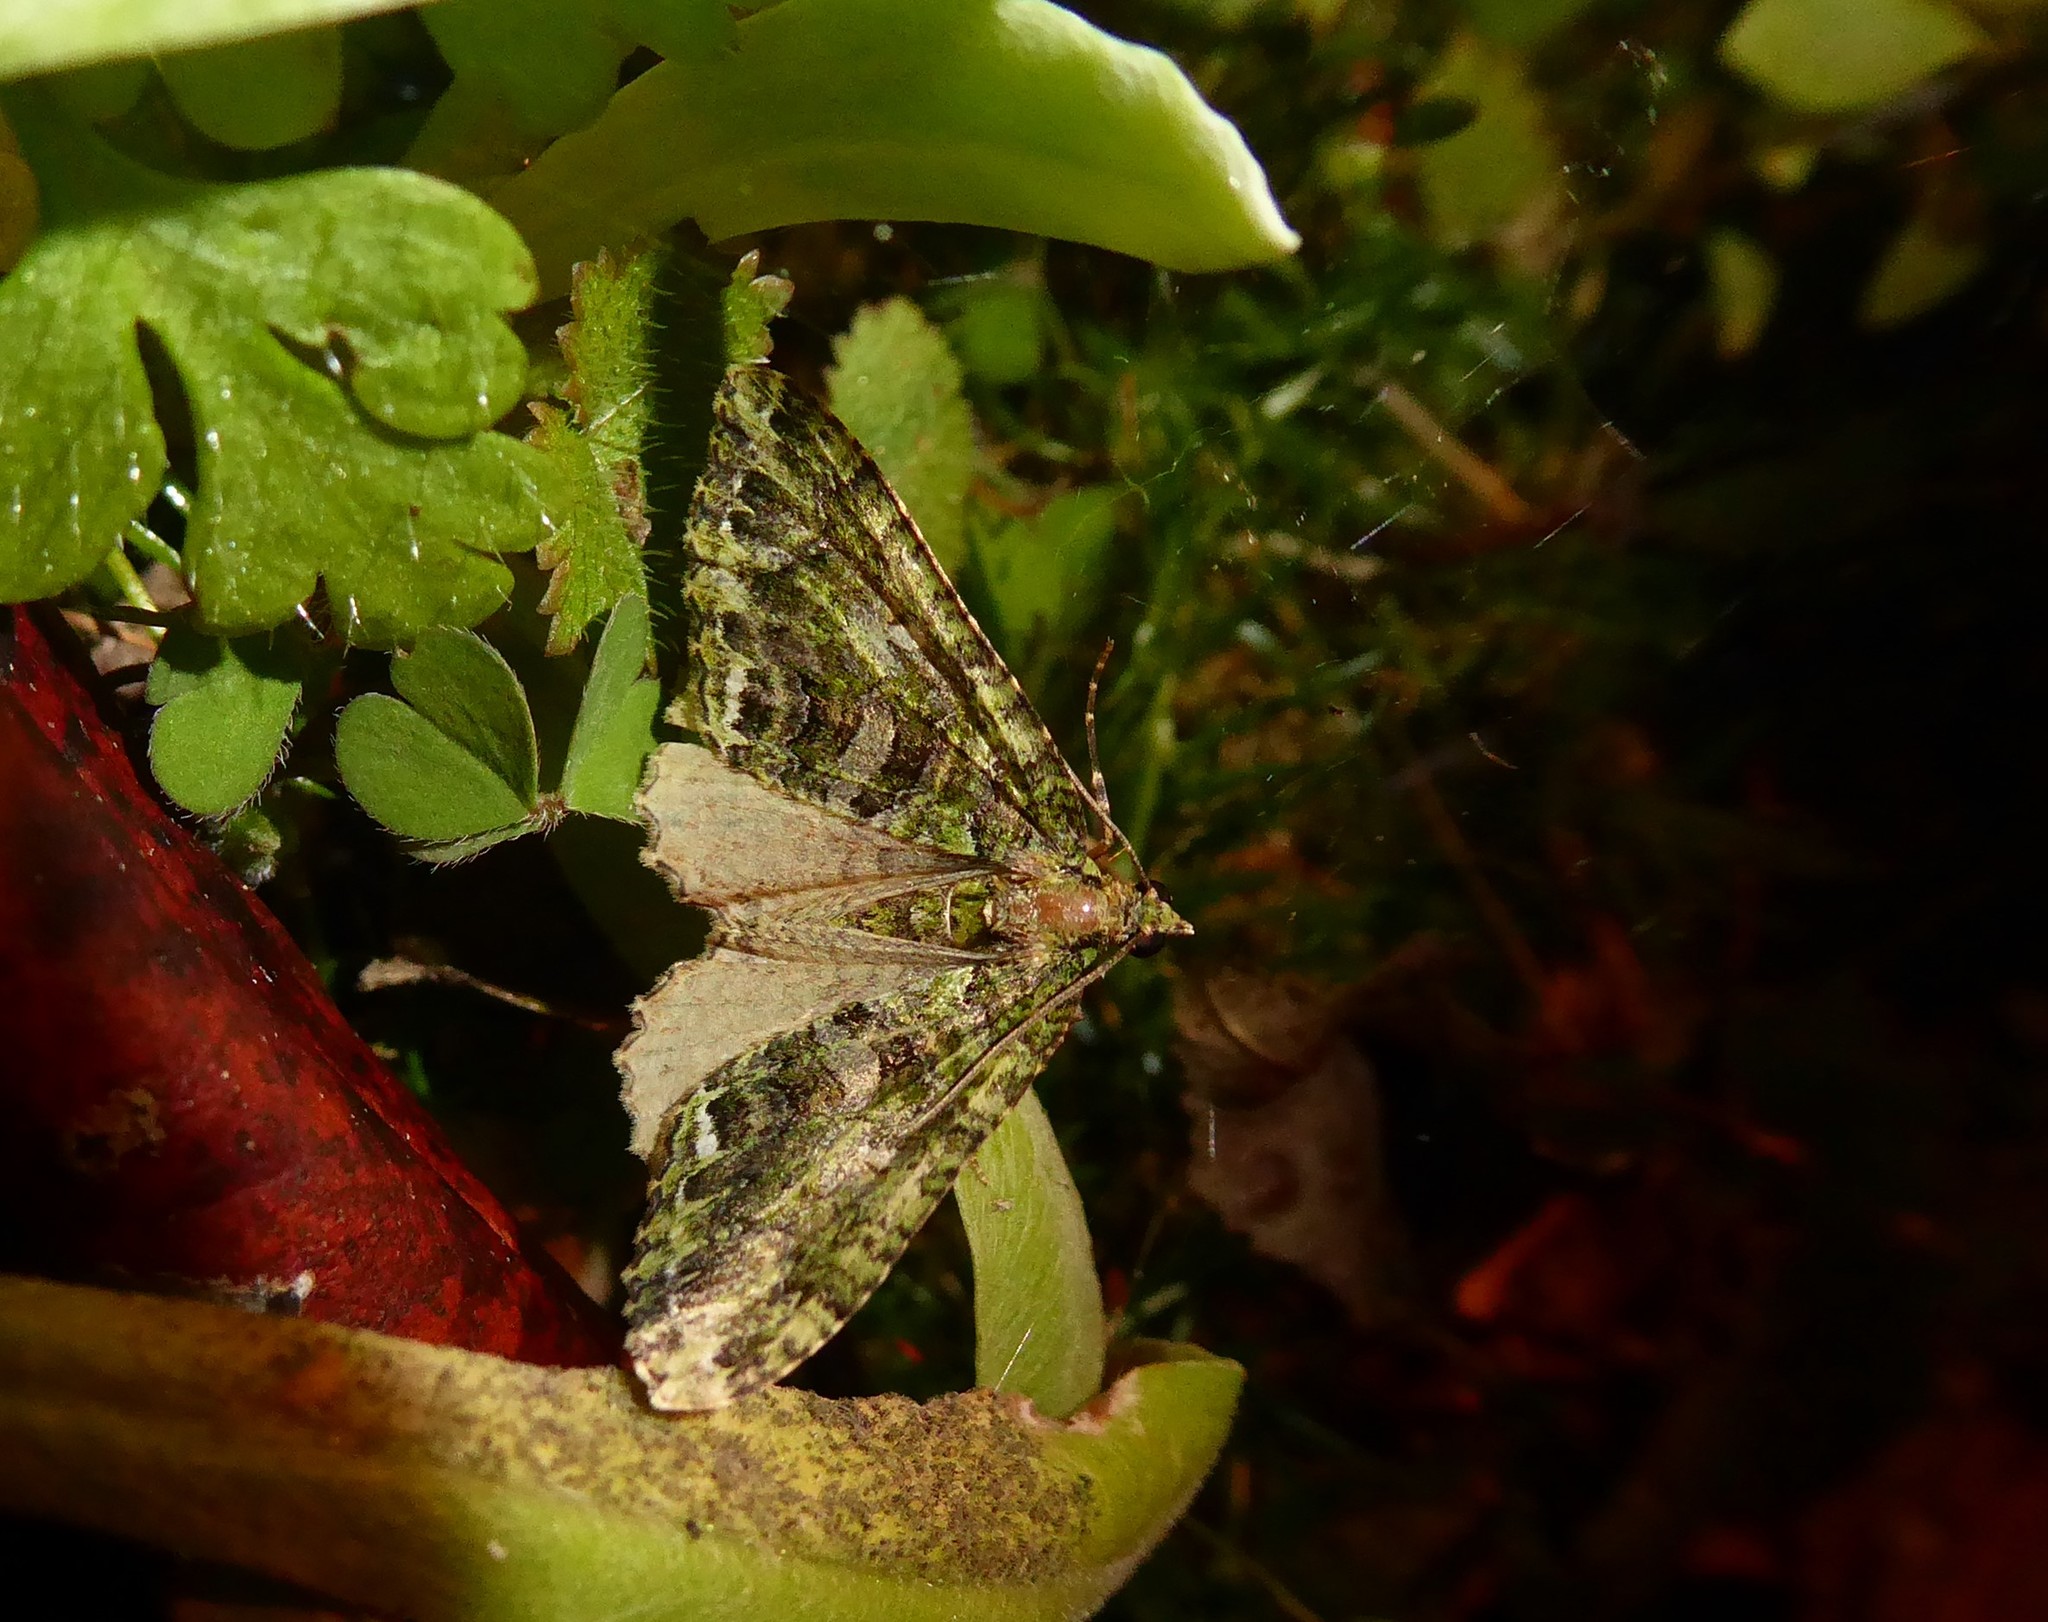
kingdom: Animalia
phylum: Arthropoda
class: Insecta
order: Lepidoptera
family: Geometridae
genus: Austrocidaria
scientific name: Austrocidaria similata
